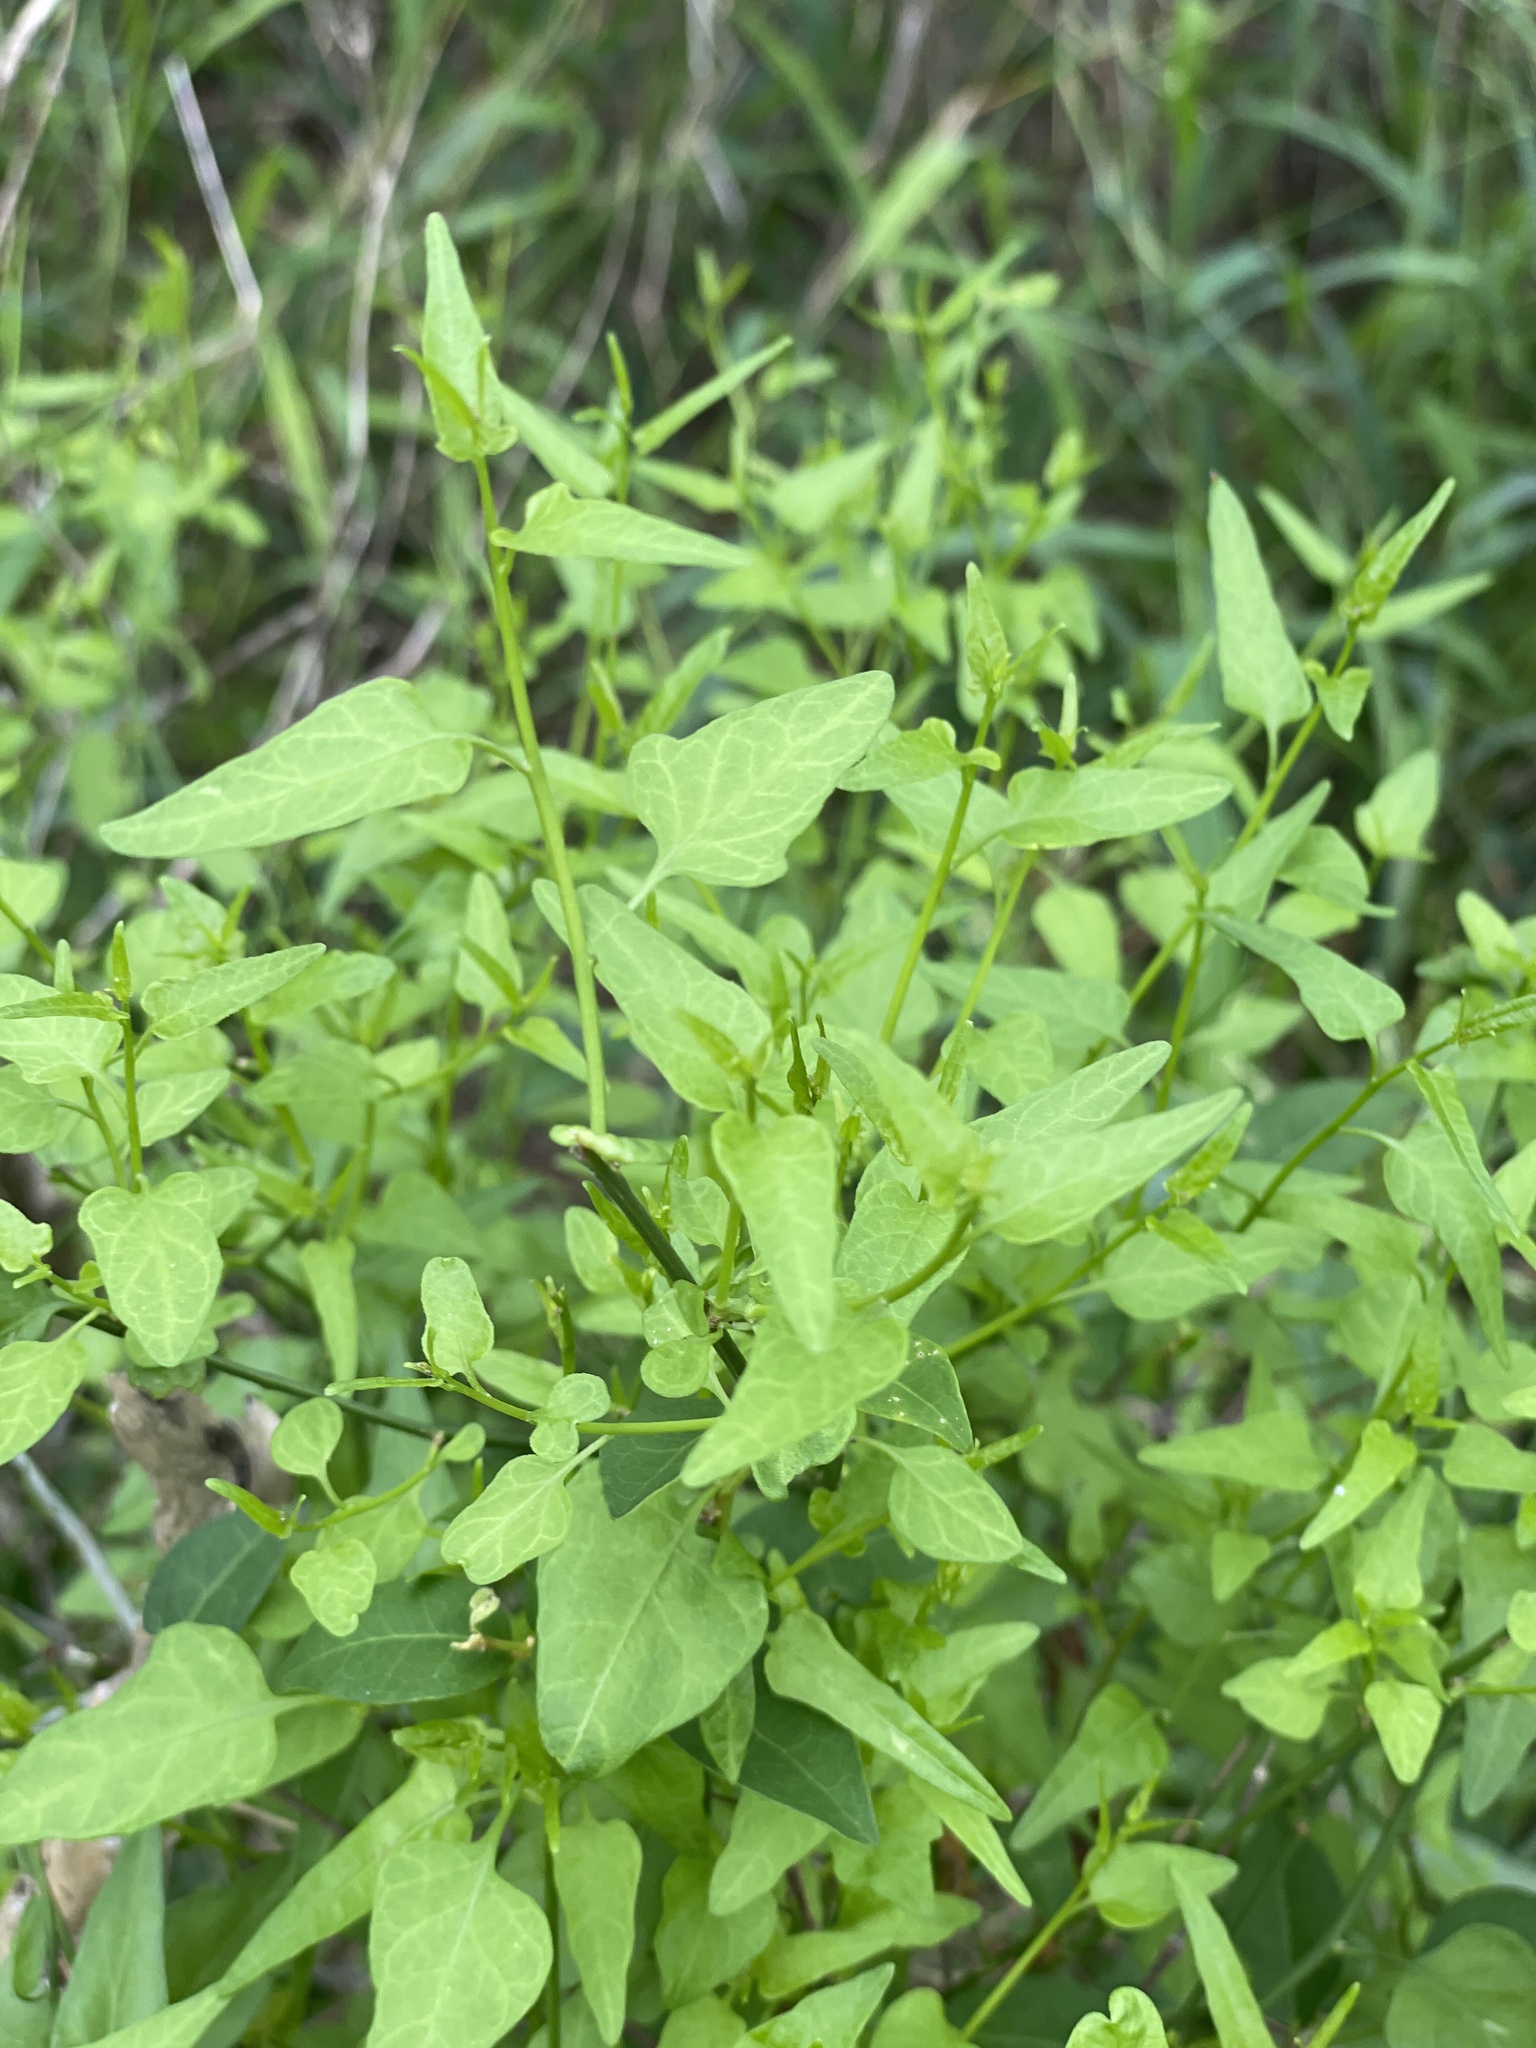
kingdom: Plantae
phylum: Tracheophyta
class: Magnoliopsida
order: Solanales
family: Solanaceae
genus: Solanum
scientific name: Solanum triquetrum
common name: Texas nightshade
